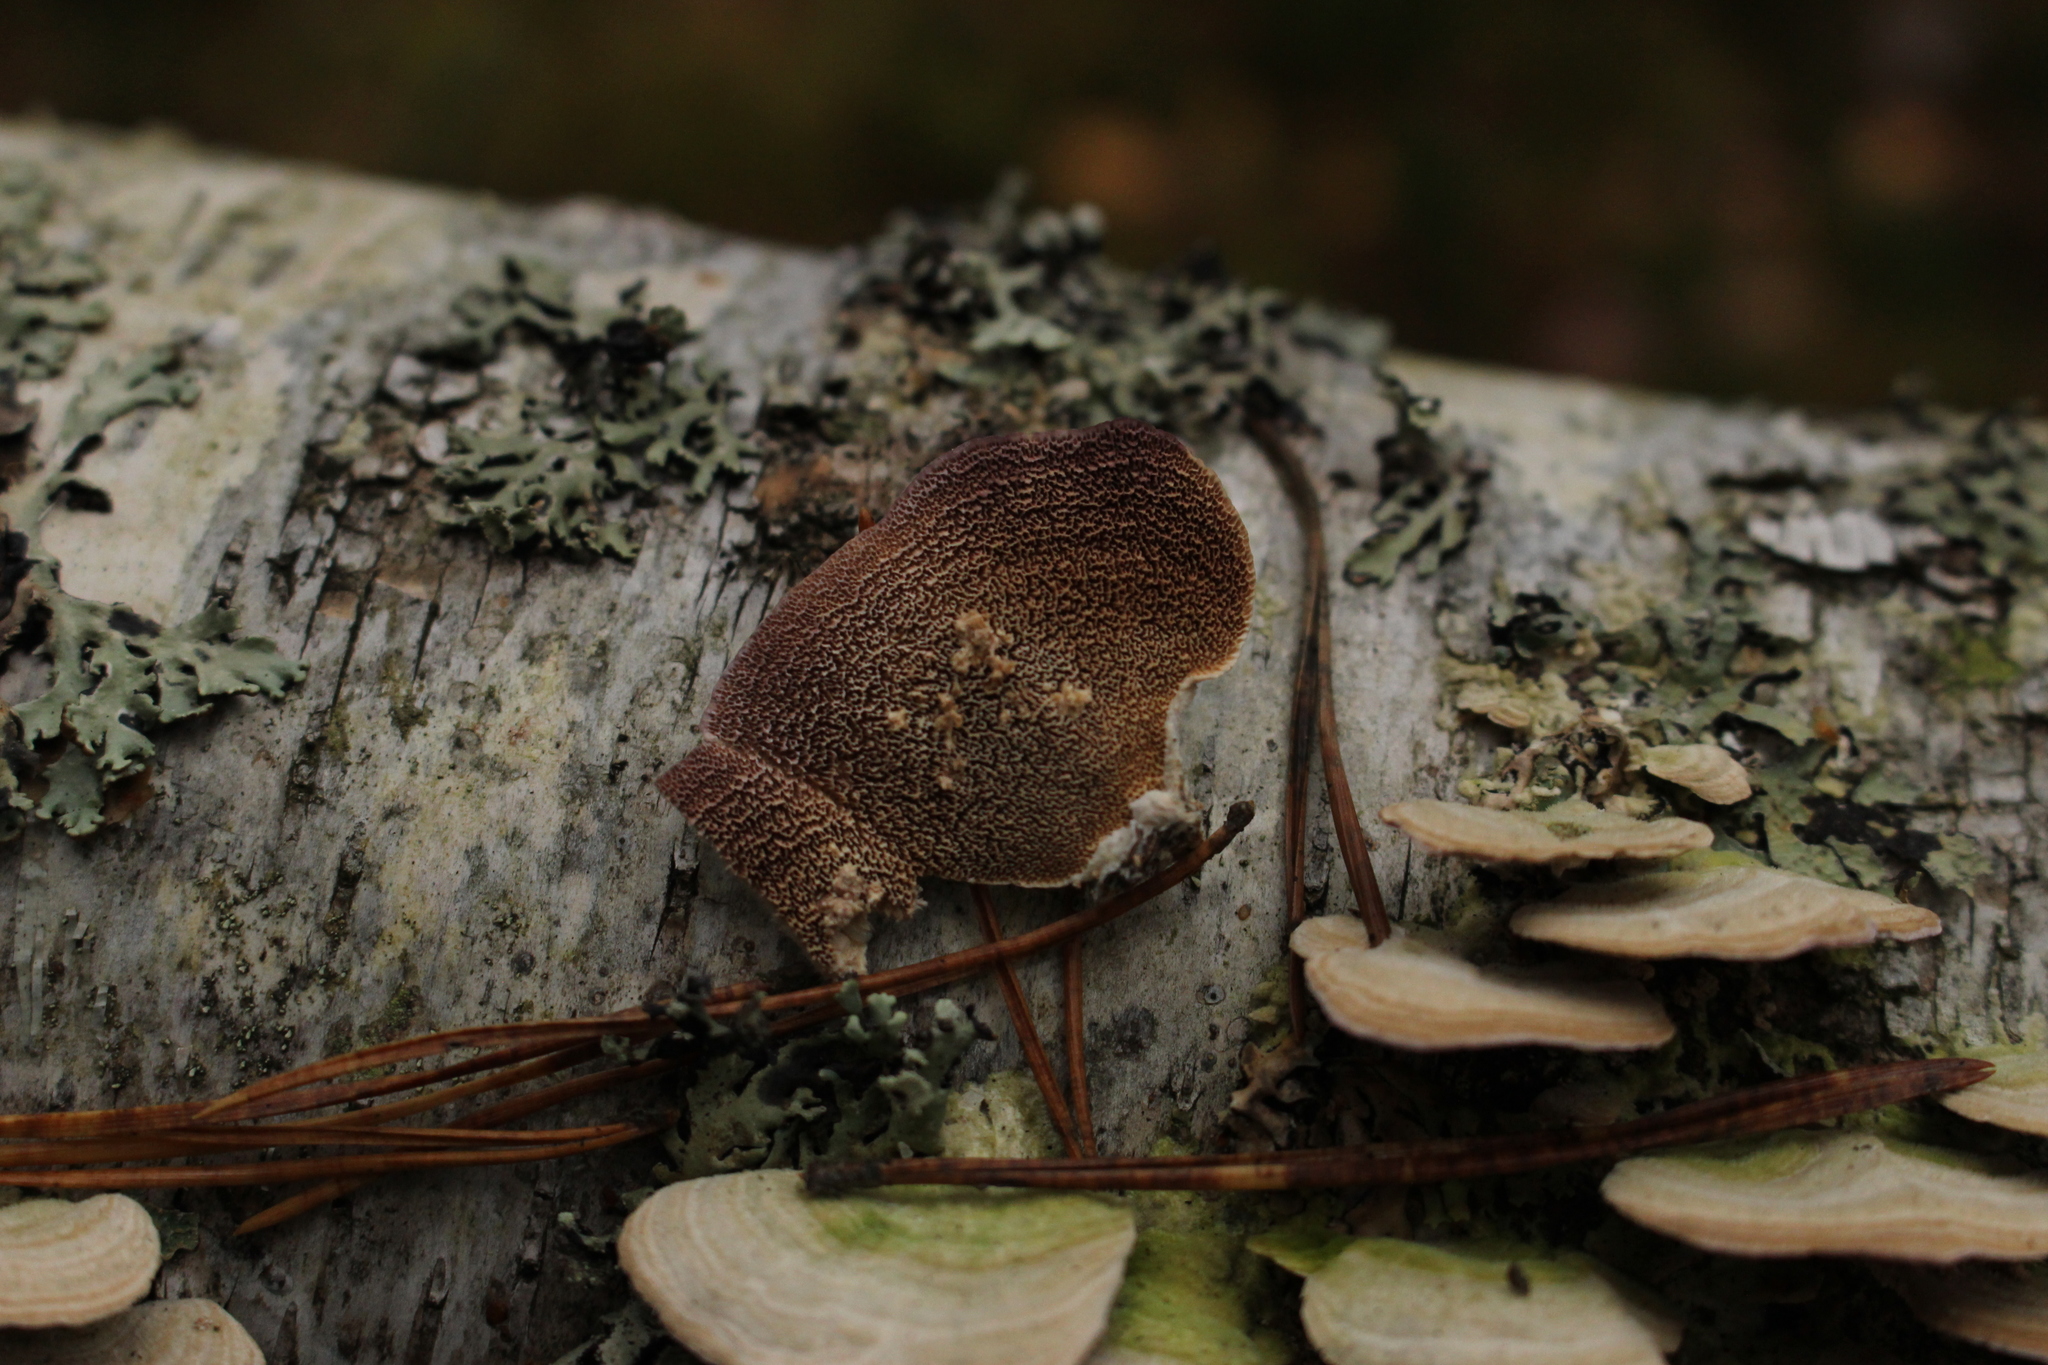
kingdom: Fungi
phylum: Basidiomycota
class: Agaricomycetes
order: Hymenochaetales
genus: Trichaptum
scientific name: Trichaptum biforme
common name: Violet-toothed polypore
